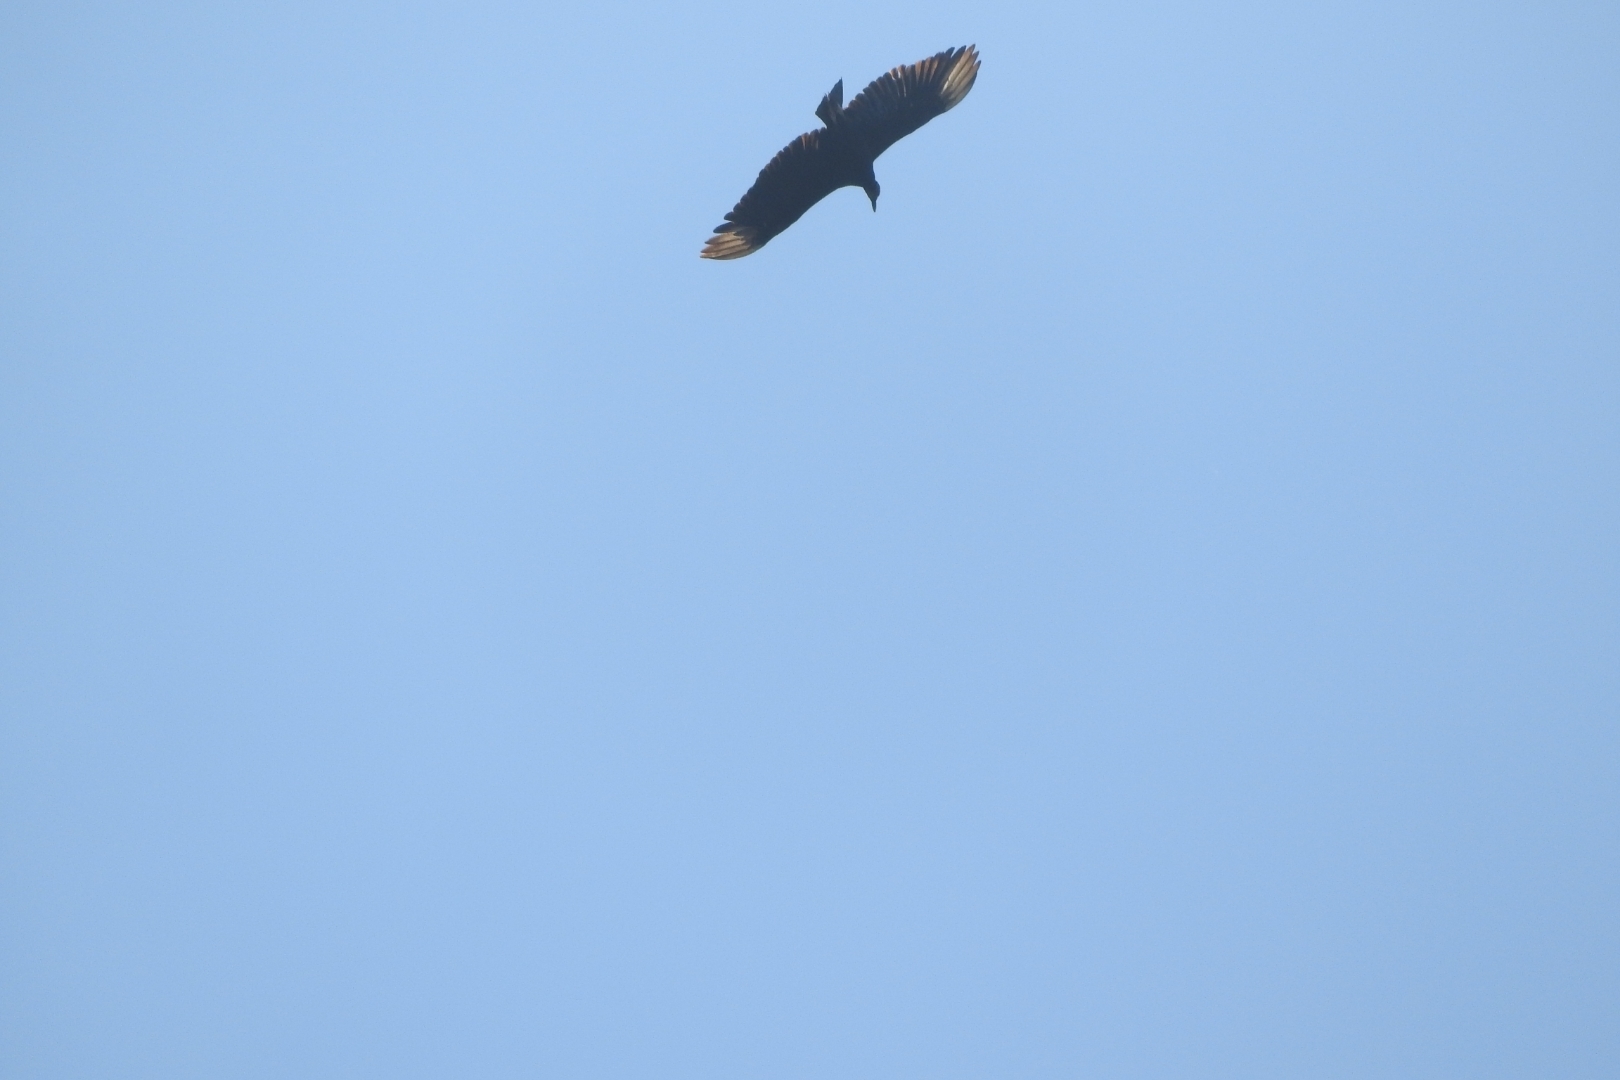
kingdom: Animalia
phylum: Chordata
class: Aves
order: Accipitriformes
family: Cathartidae
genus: Coragyps
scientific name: Coragyps atratus
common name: Black vulture
